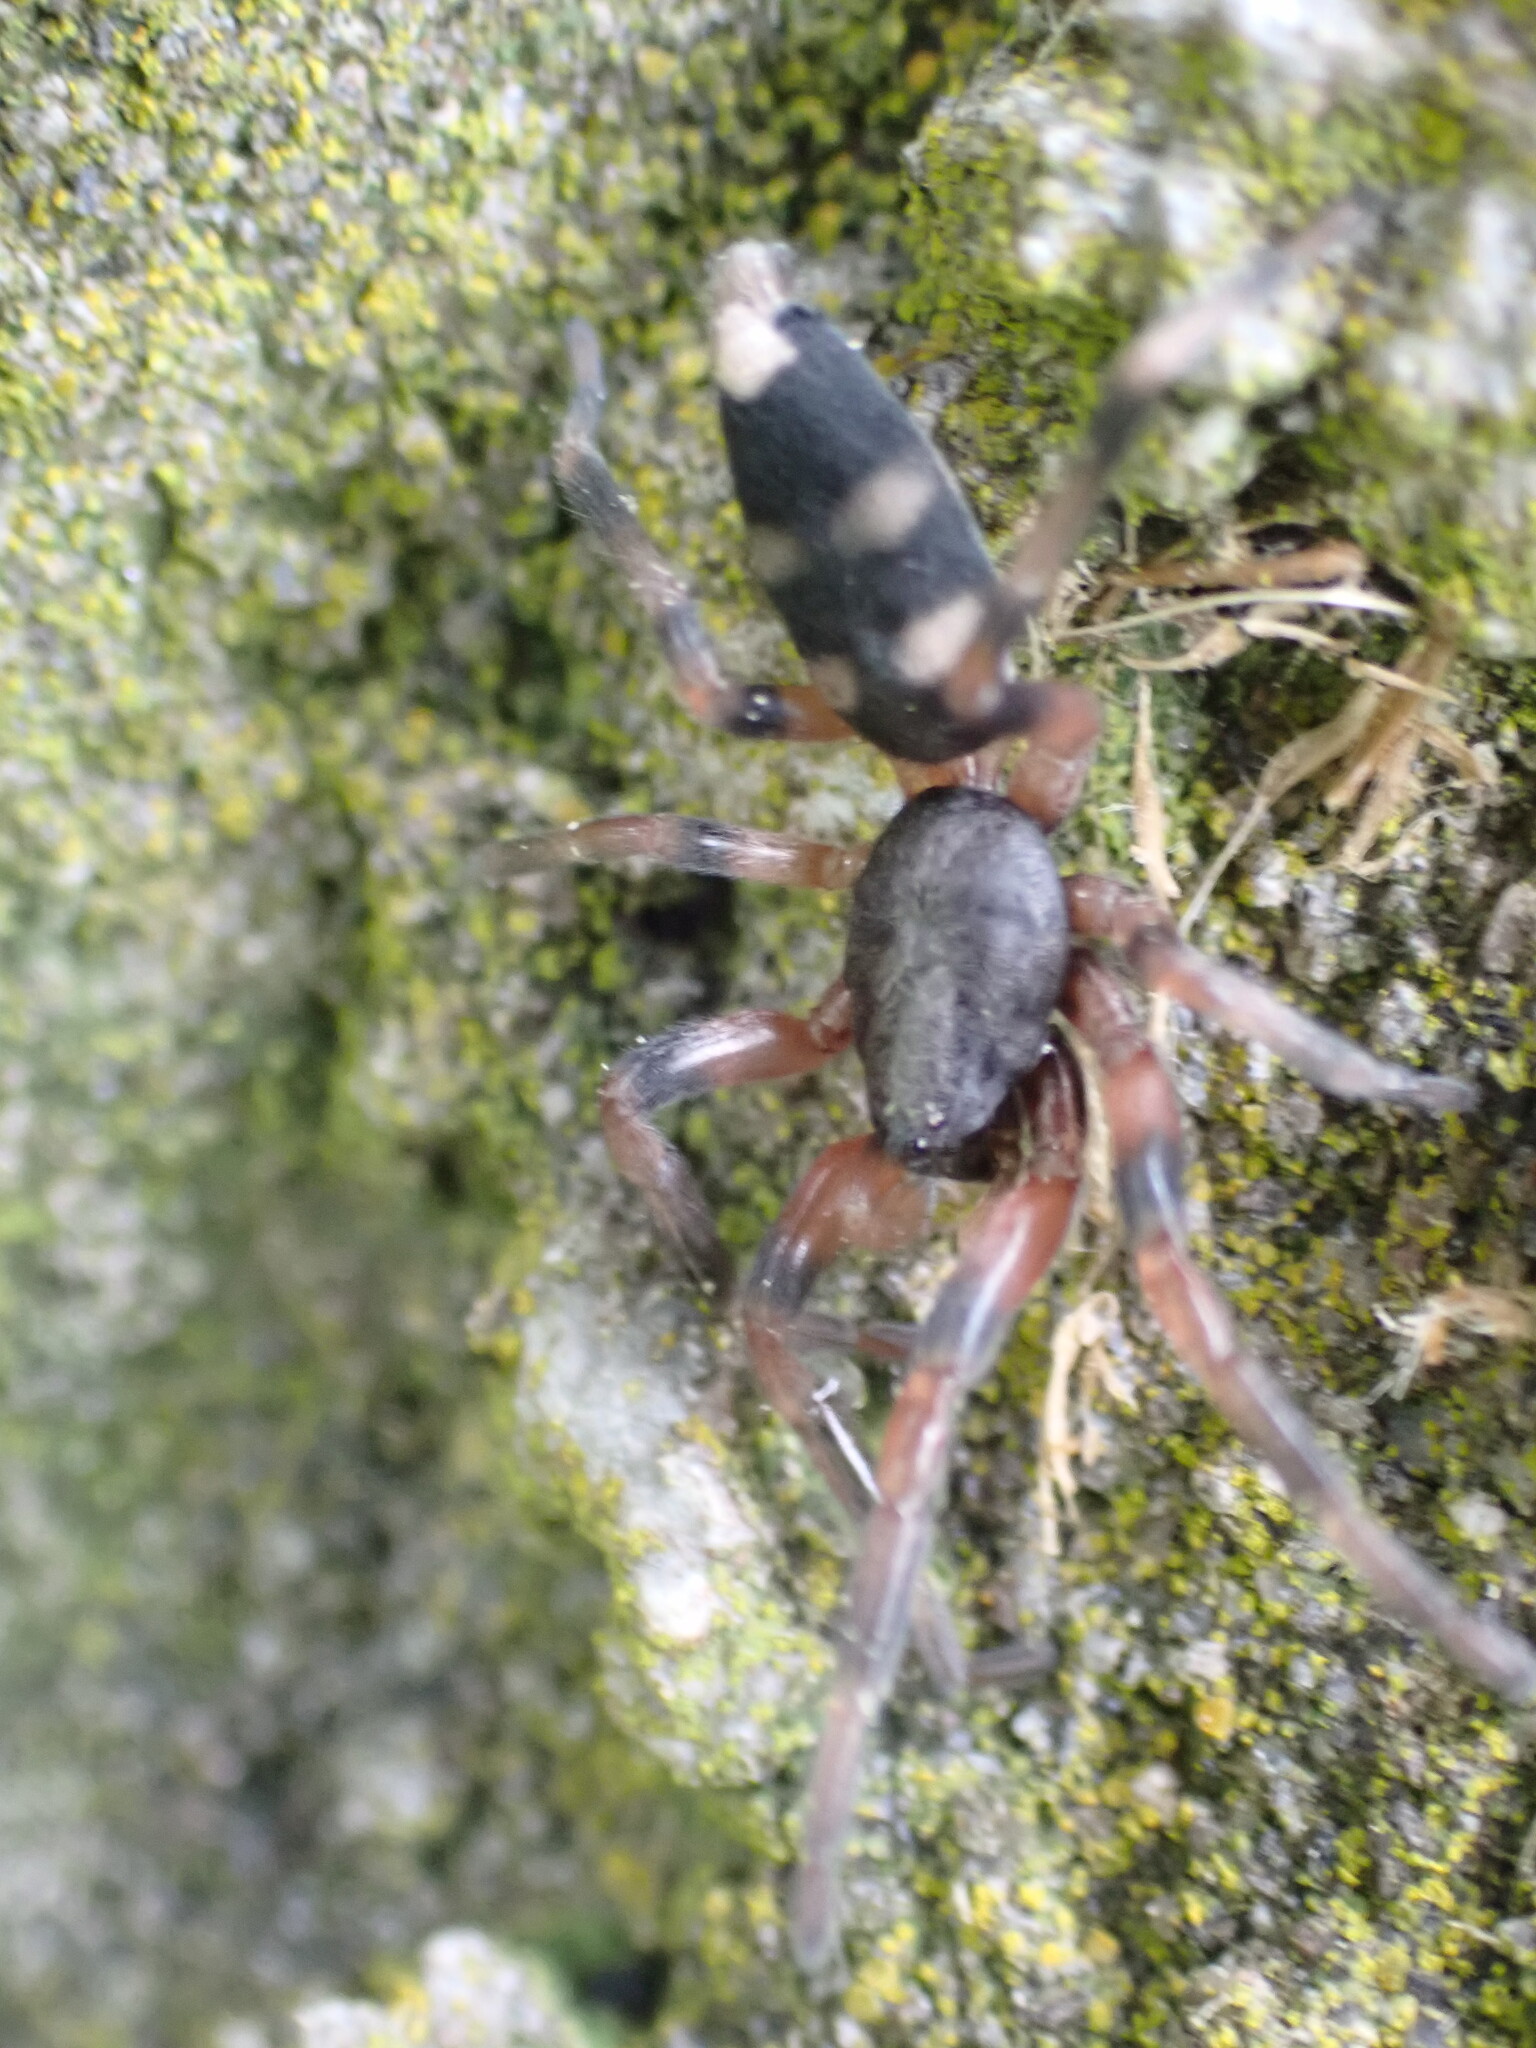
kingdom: Animalia
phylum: Arthropoda
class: Arachnida
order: Araneae
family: Lamponidae
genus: Lampona
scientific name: Lampona murina
